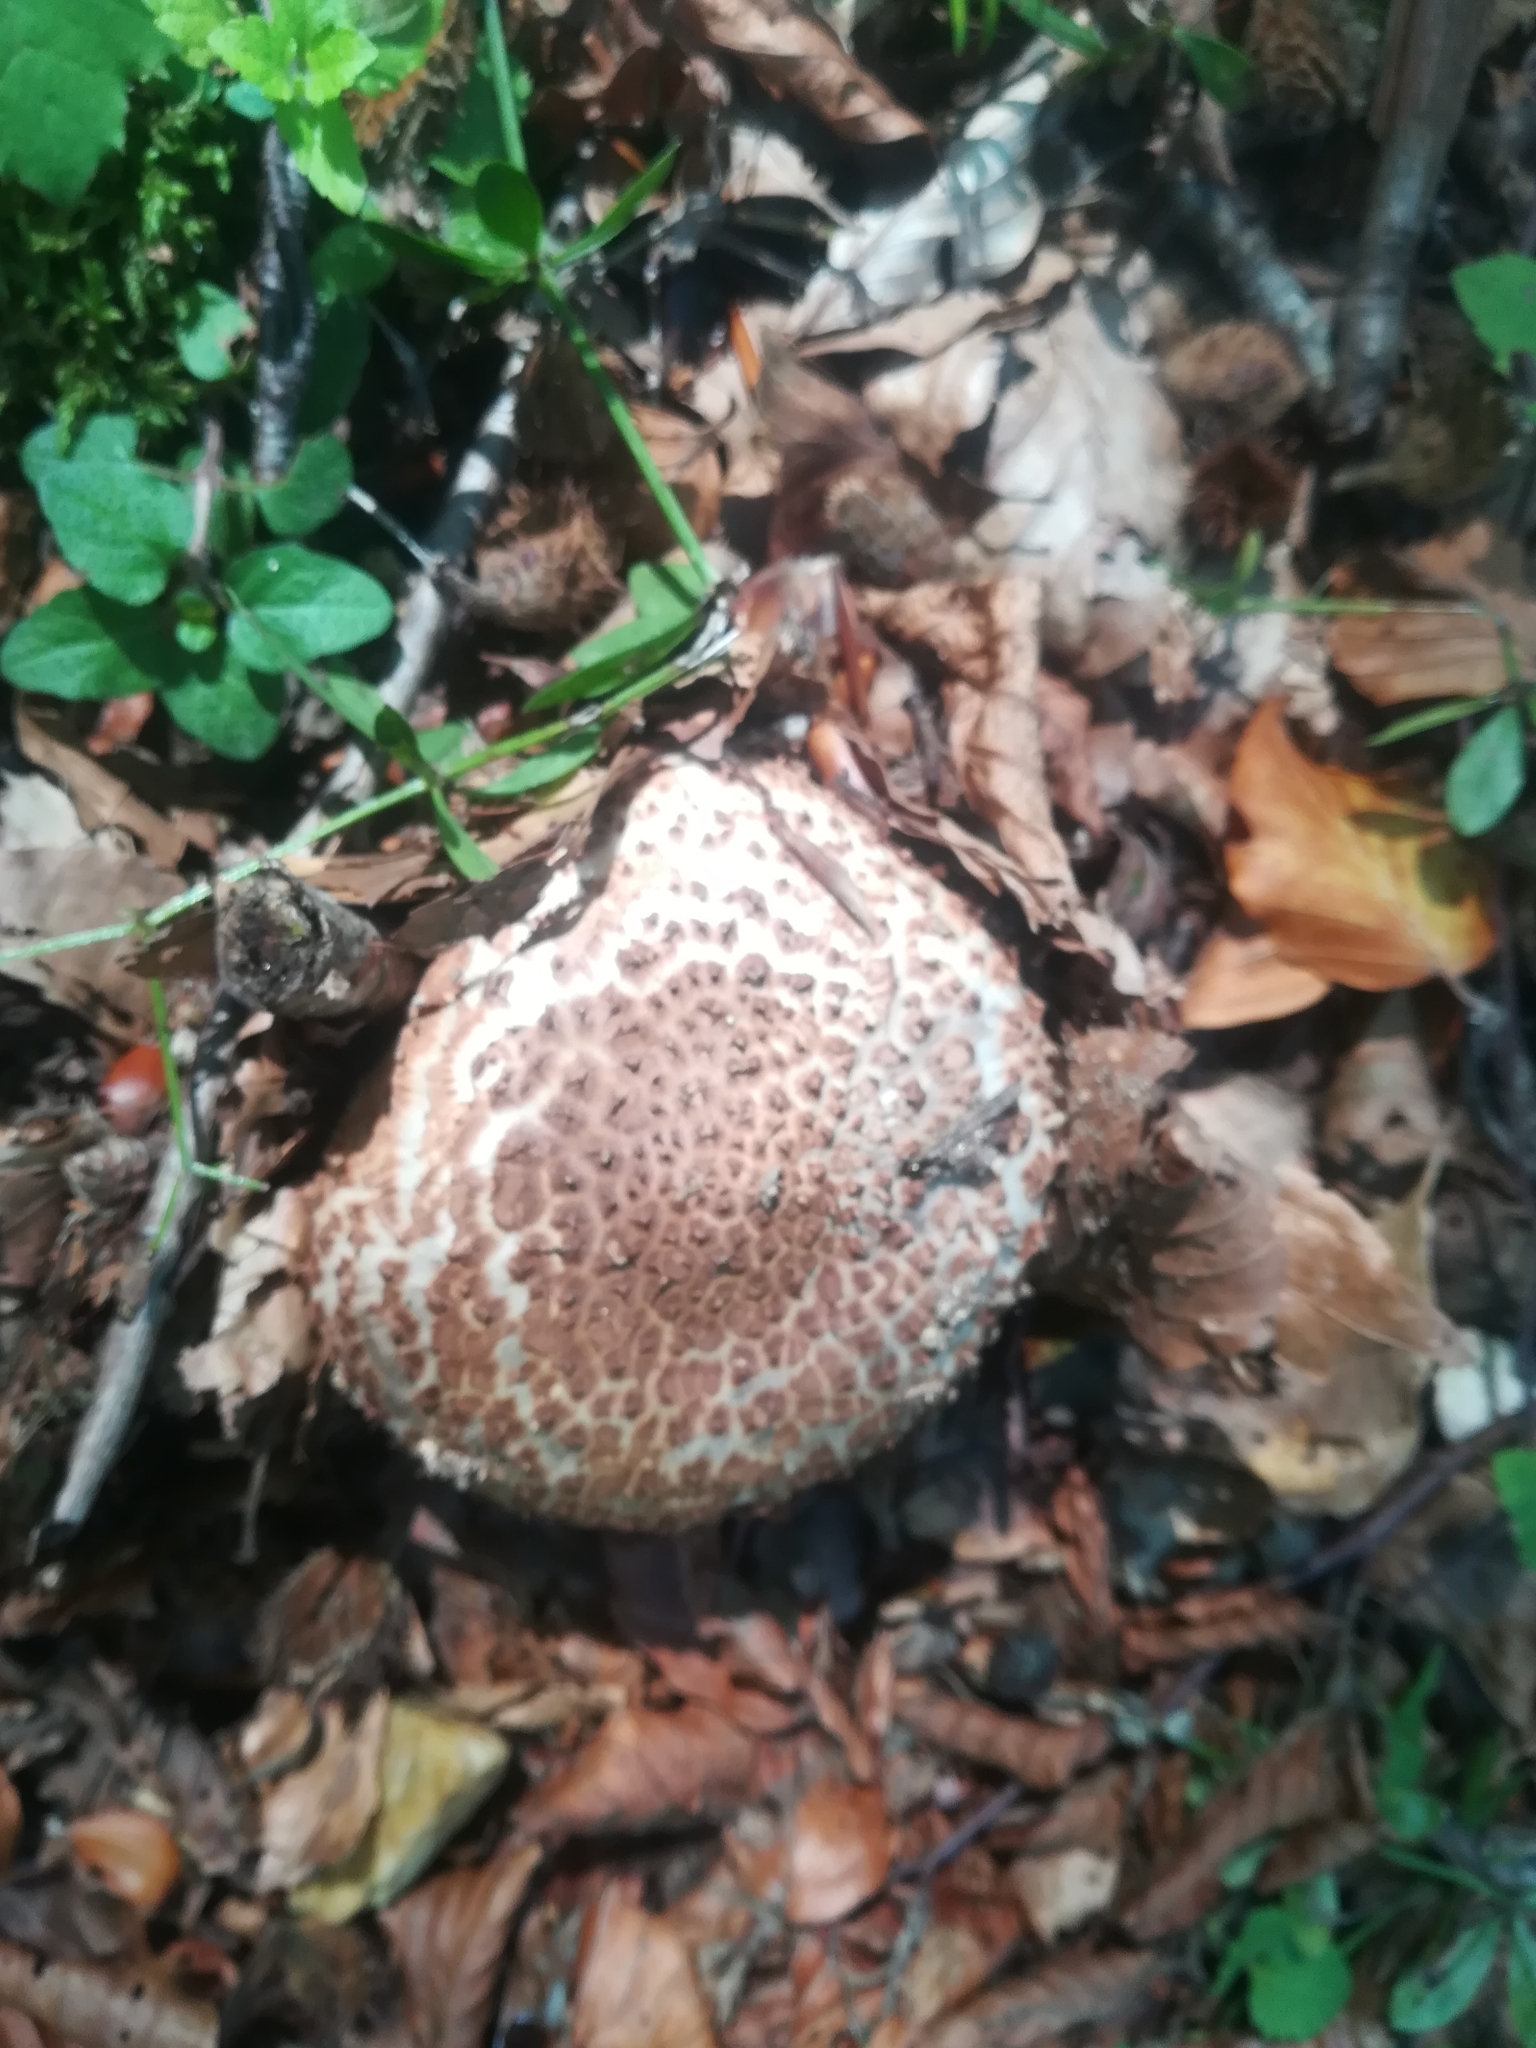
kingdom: Fungi
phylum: Basidiomycota
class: Agaricomycetes
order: Agaricales
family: Agaricaceae
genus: Echinoderma
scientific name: Echinoderma asperum
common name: Freckled dapperling
